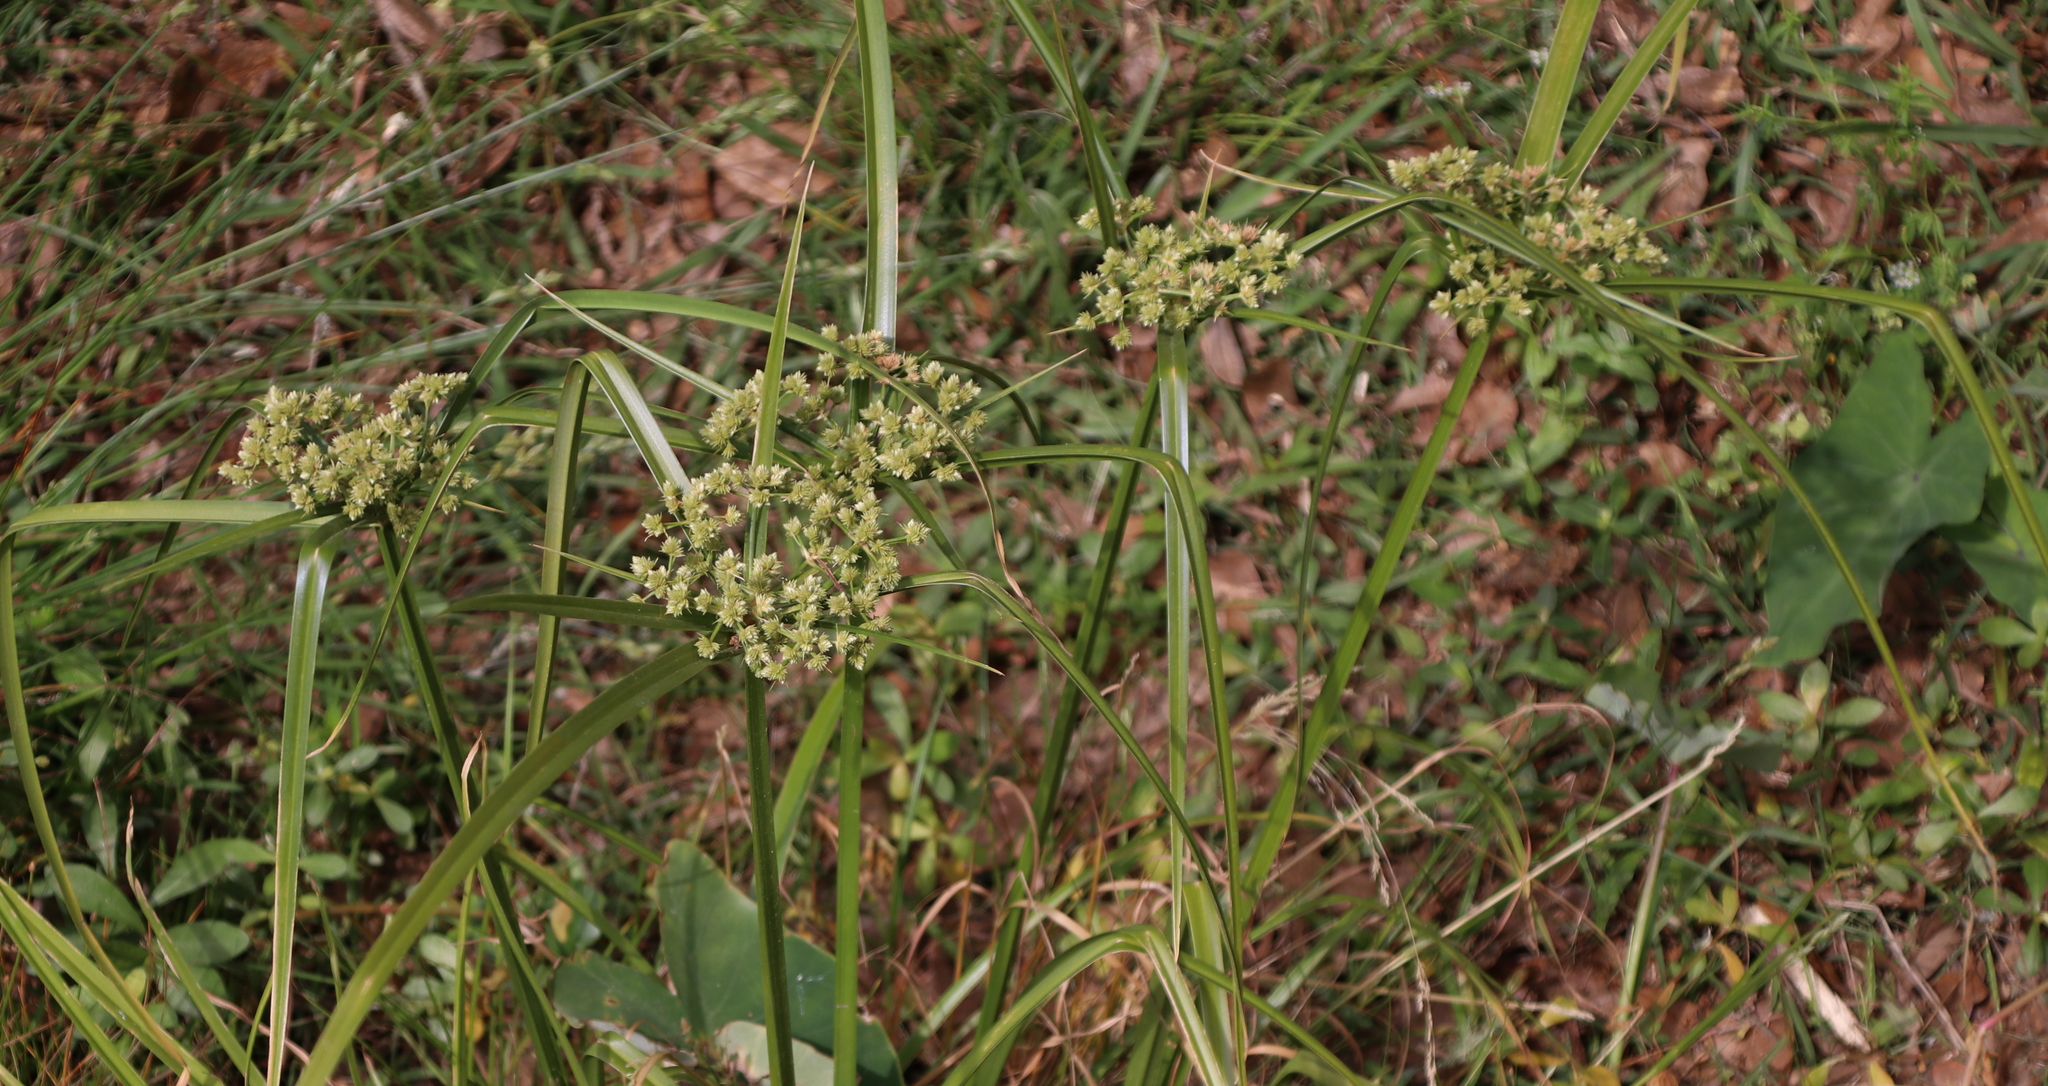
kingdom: Plantae
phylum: Tracheophyta
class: Liliopsida
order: Poales
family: Cyperaceae
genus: Cyperus
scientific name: Cyperus virens
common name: Green flatsedge
